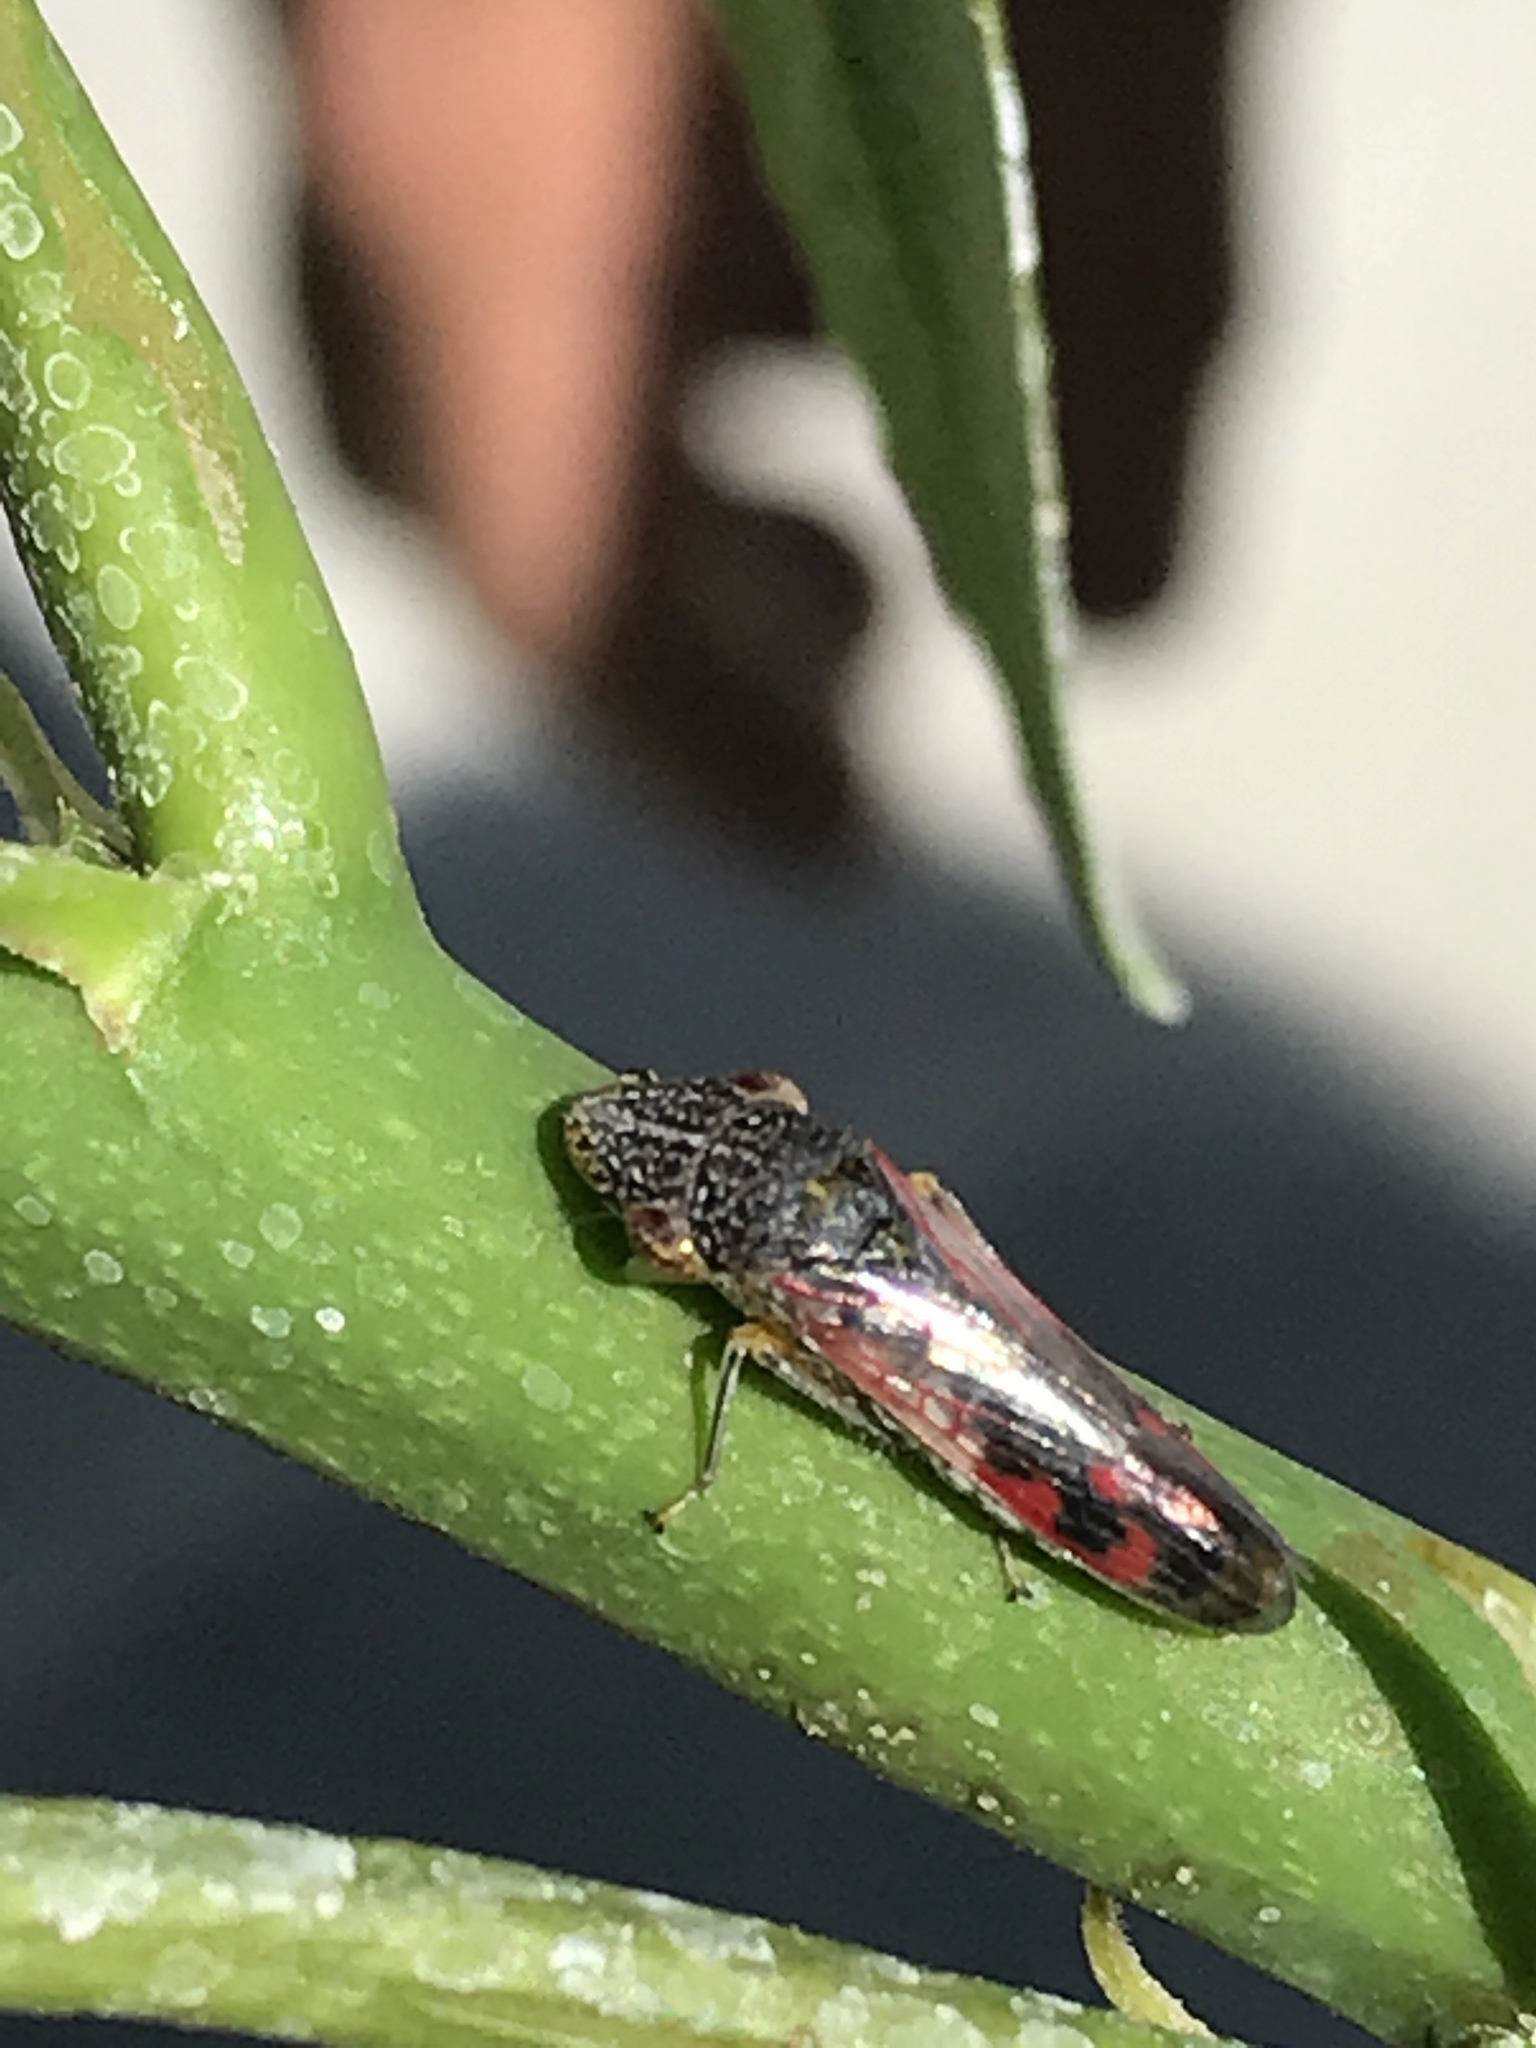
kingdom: Animalia
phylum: Arthropoda
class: Insecta
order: Hemiptera
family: Cicadellidae
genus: Homalodisca
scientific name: Homalodisca liturata
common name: Lacertate sharpshooter
